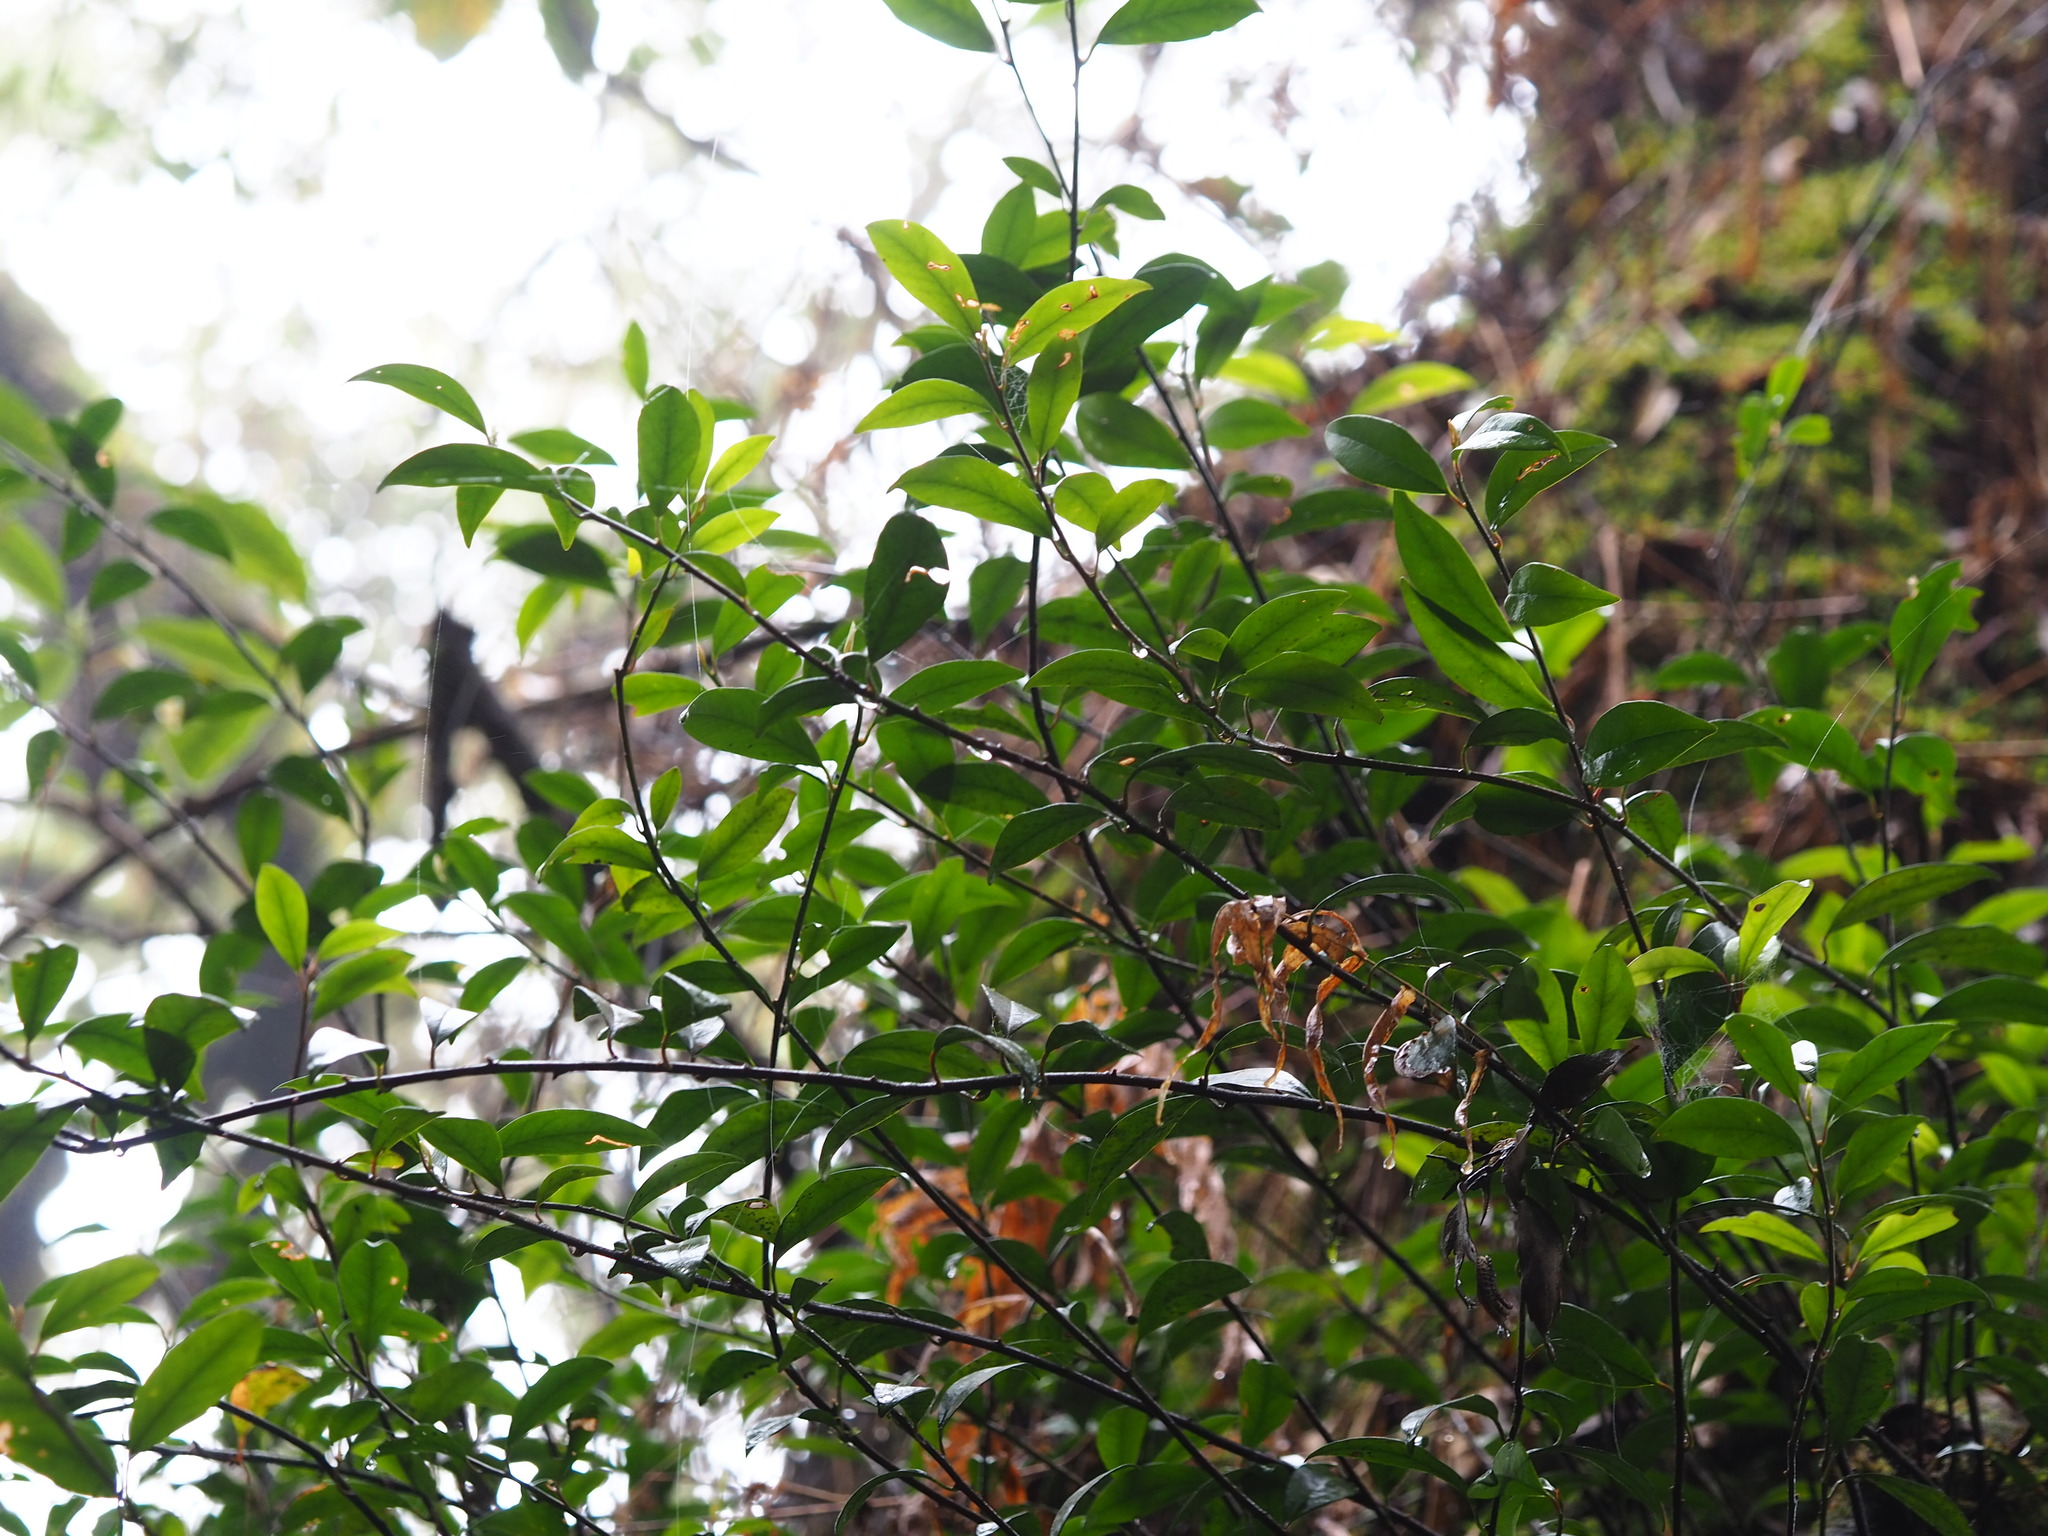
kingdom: Plantae
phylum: Tracheophyta
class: Magnoliopsida
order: Ericales
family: Primulaceae
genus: Myrsine
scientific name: Myrsine stolonifera
